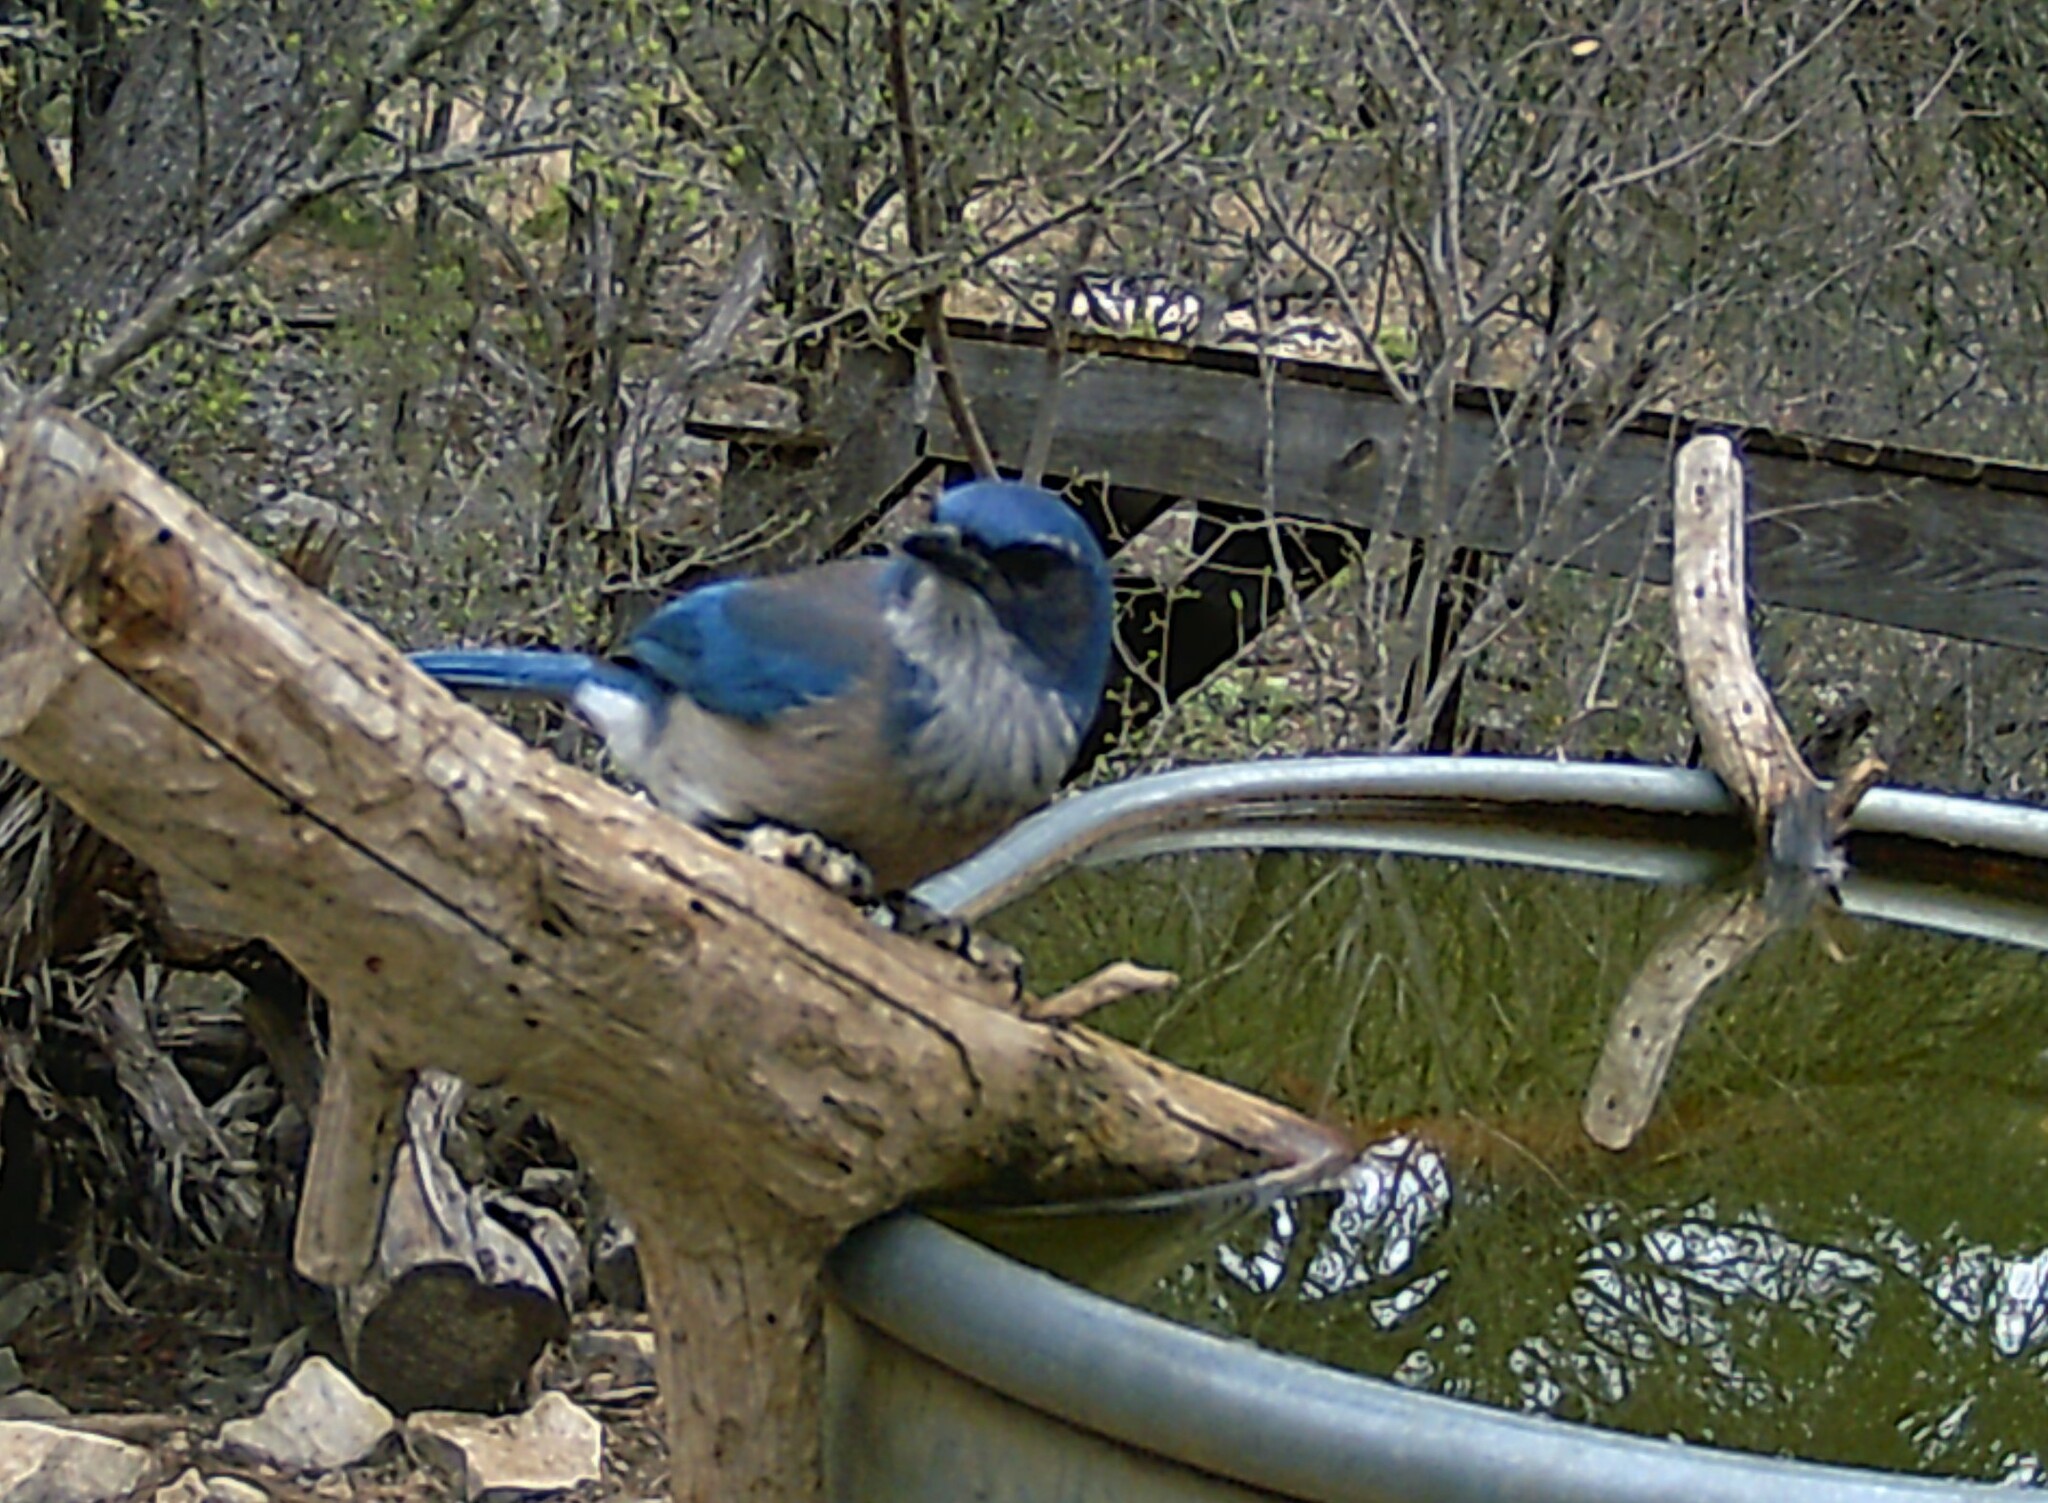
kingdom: Animalia
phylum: Chordata
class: Aves
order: Passeriformes
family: Corvidae
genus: Aphelocoma
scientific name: Aphelocoma woodhouseii
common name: Woodhouse's scrub-jay
